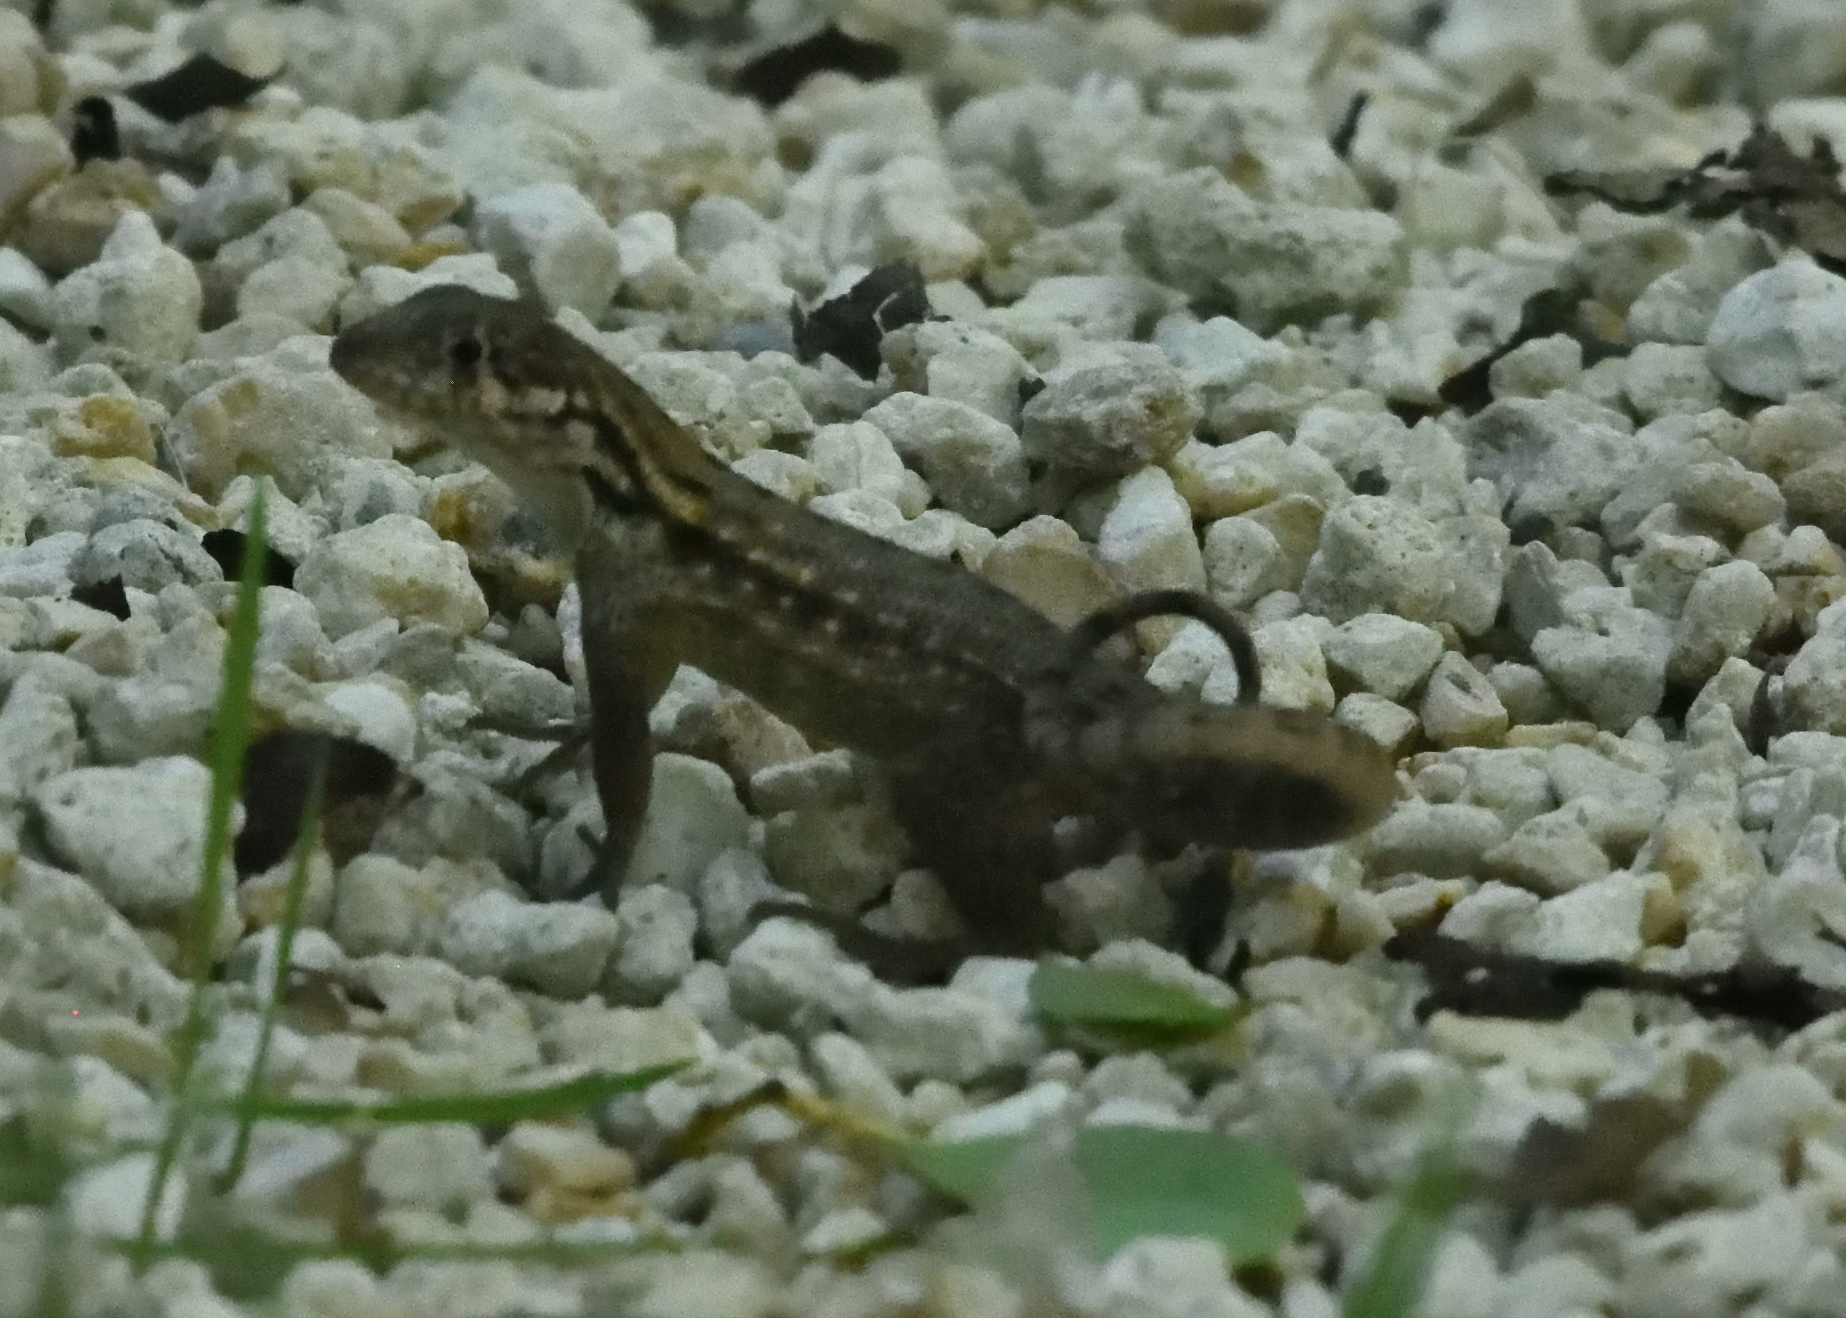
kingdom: Animalia
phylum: Chordata
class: Squamata
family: Leiocephalidae
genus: Leiocephalus
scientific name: Leiocephalus carinatus
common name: Northern curly-tailed lizard
